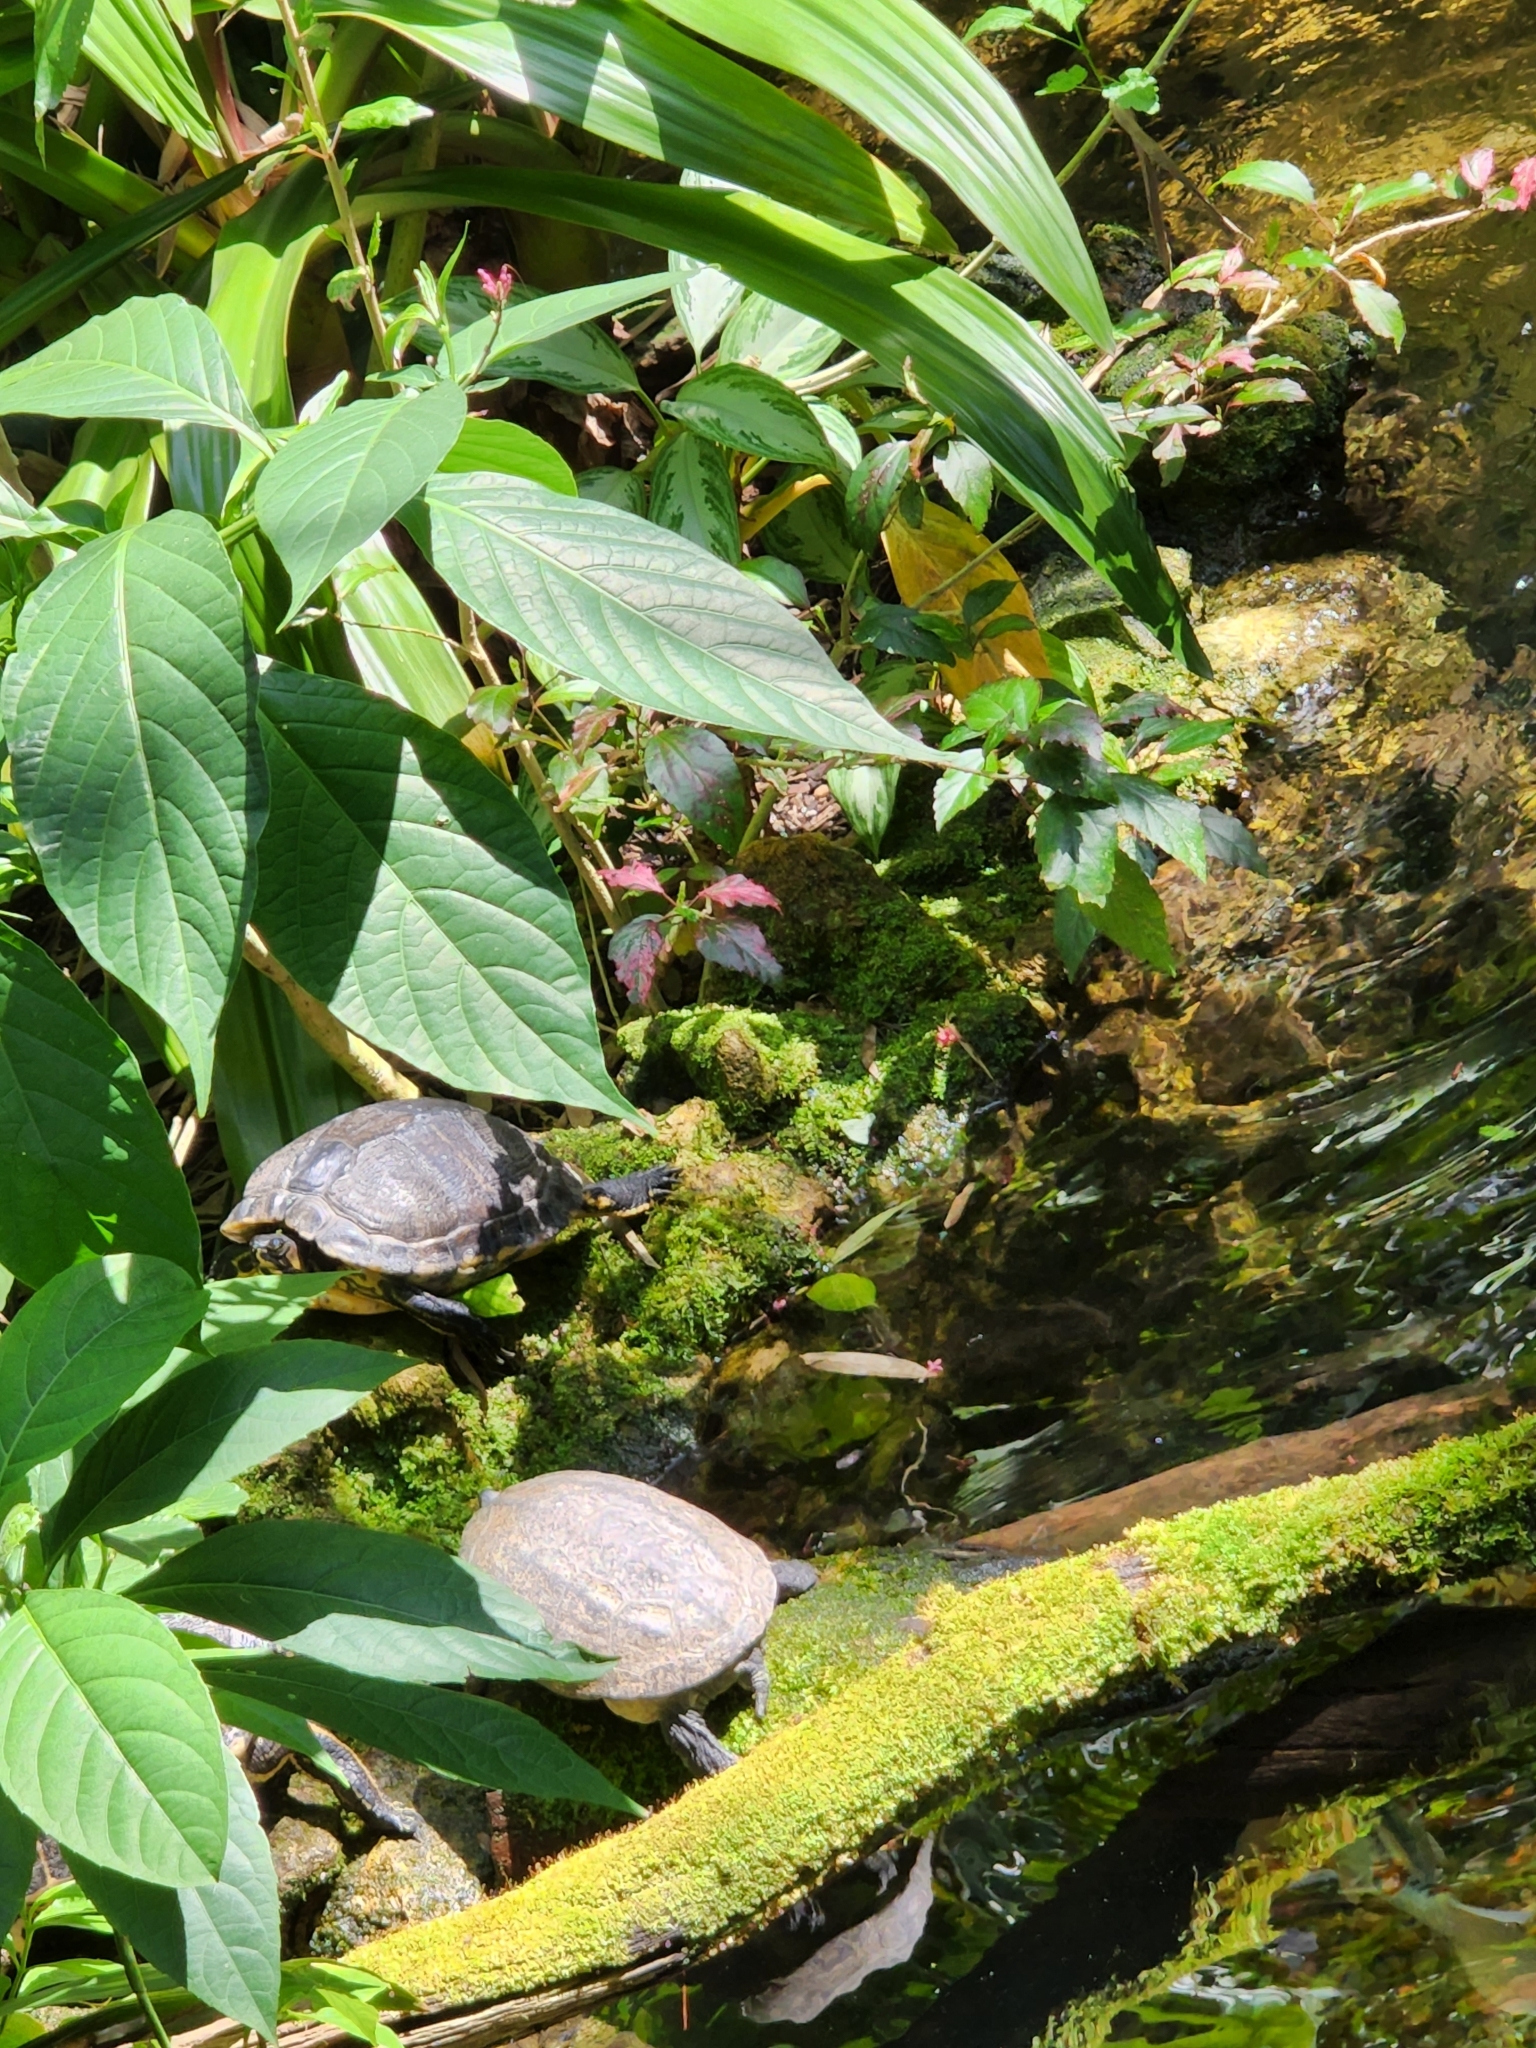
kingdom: Animalia
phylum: Chordata
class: Testudines
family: Emydidae
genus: Trachemys
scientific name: Trachemys scripta
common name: Slider
